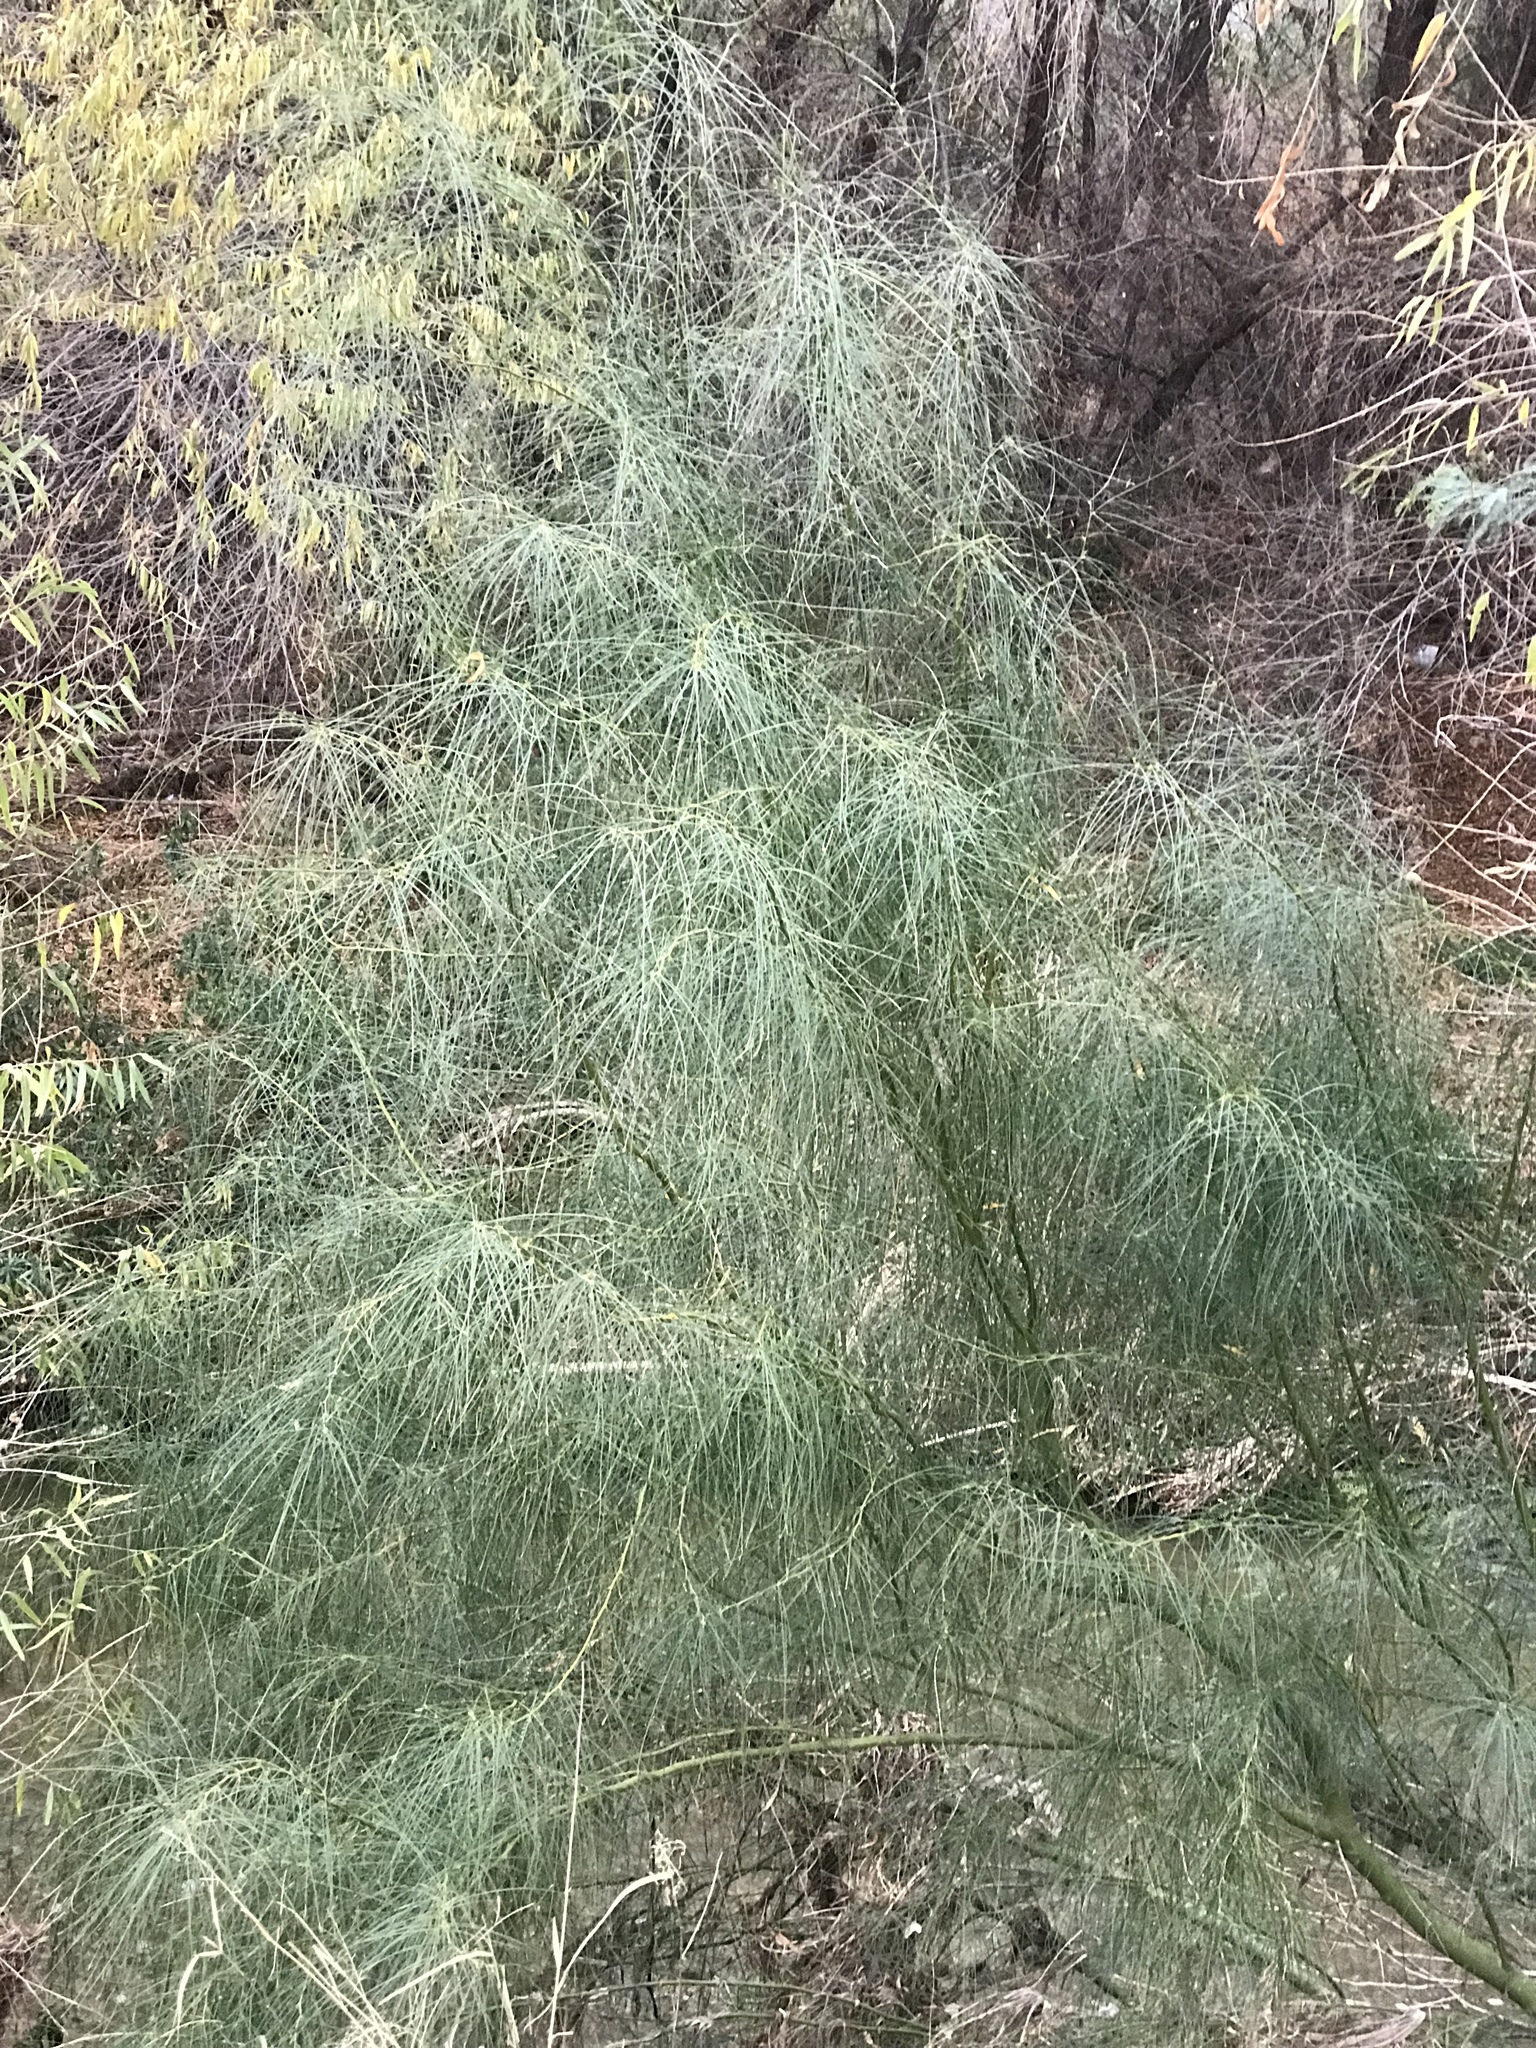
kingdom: Plantae
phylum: Tracheophyta
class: Magnoliopsida
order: Fabales
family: Fabaceae
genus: Parkinsonia
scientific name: Parkinsonia aculeata
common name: Jerusalem thorn
